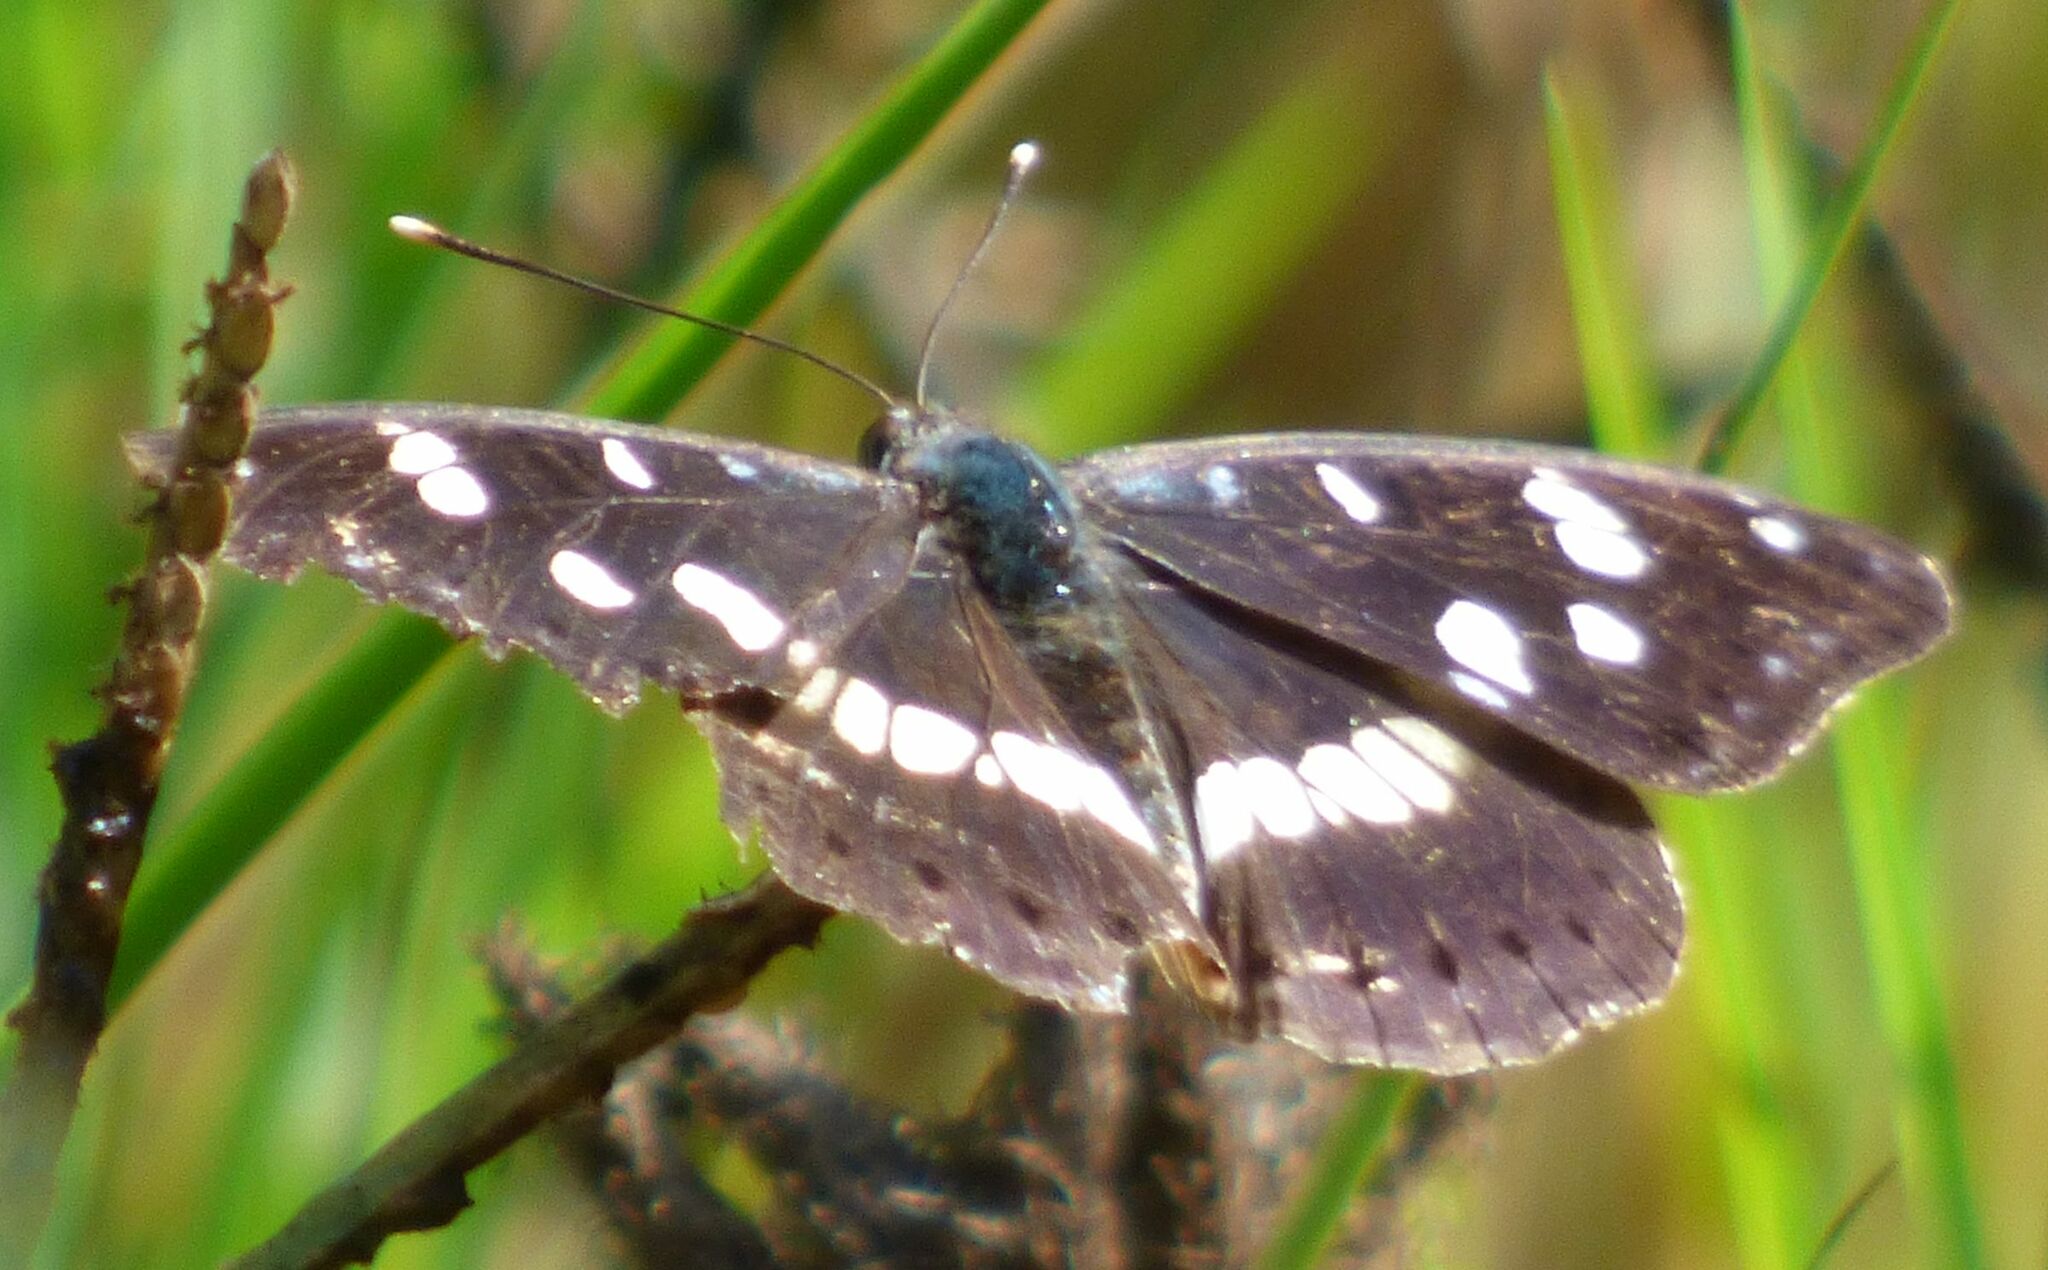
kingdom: Animalia
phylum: Arthropoda
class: Insecta
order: Lepidoptera
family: Nymphalidae
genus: Limenitis
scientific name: Limenitis reducta
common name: Southern white admiral
